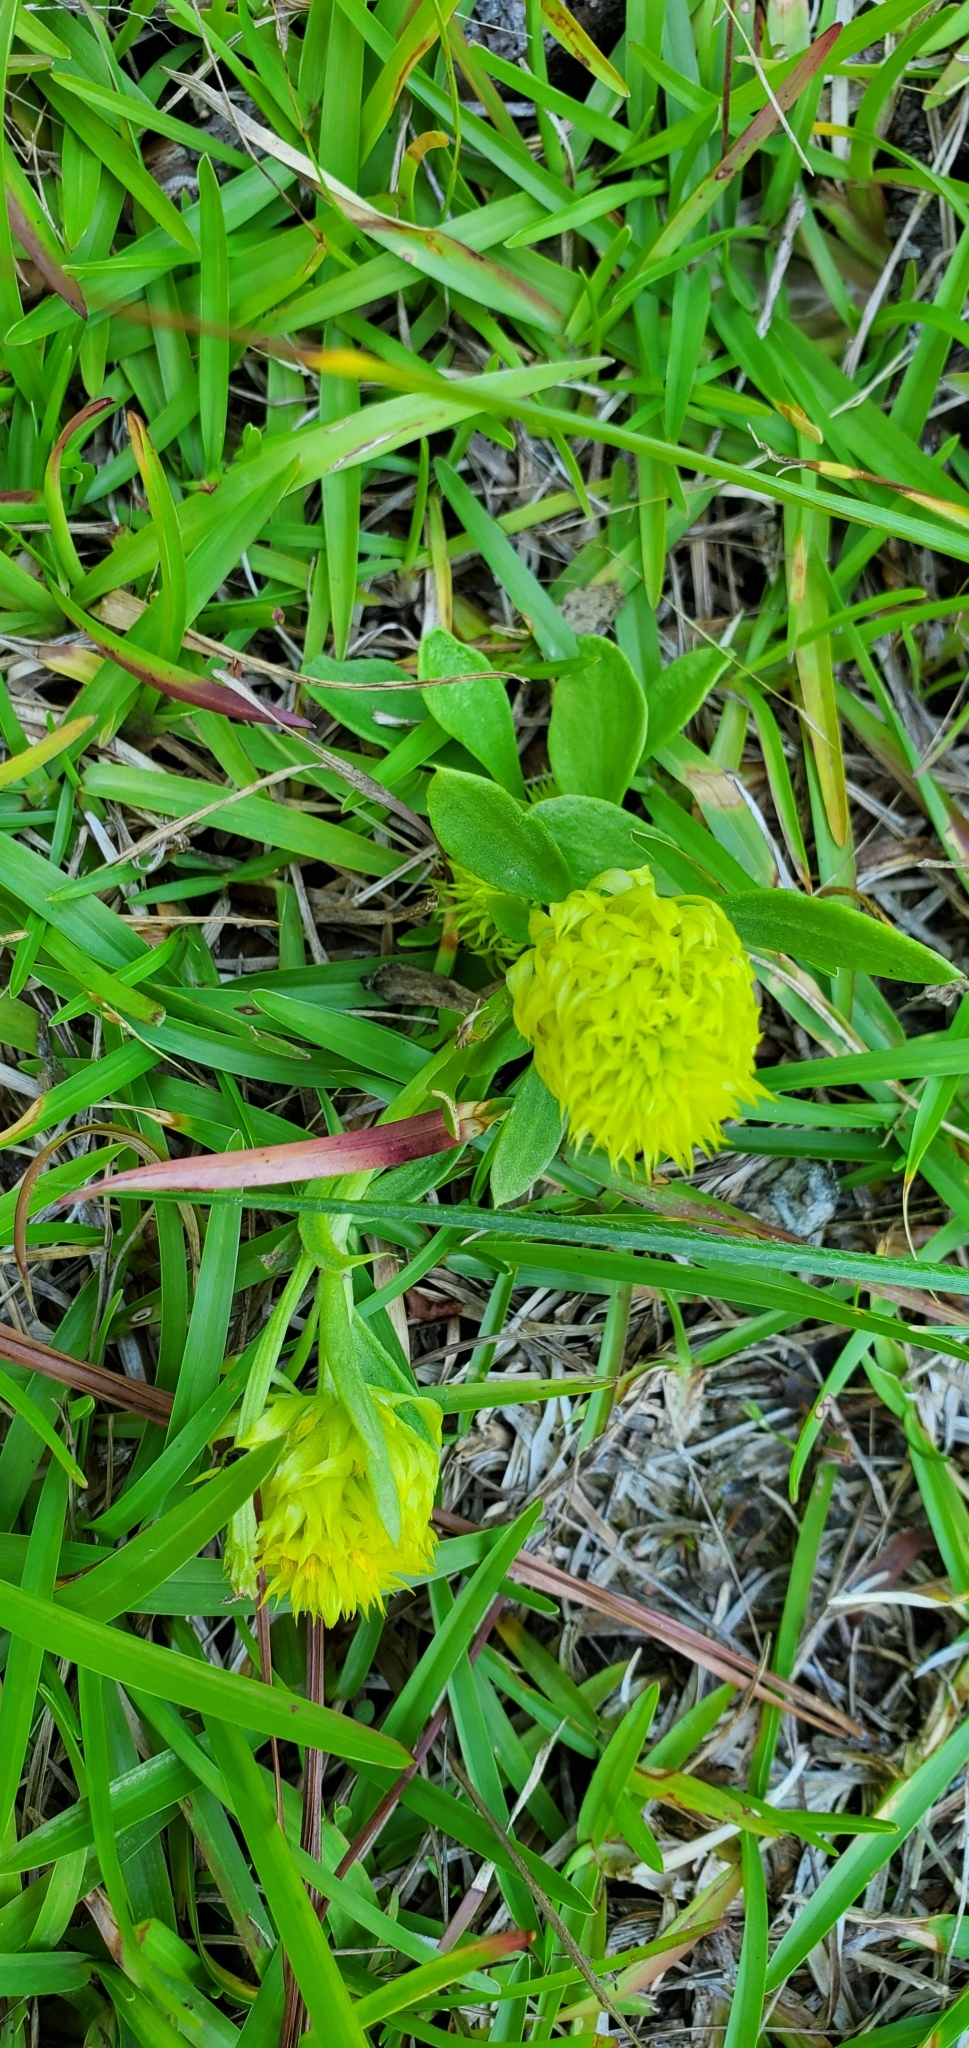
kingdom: Plantae
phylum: Tracheophyta
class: Magnoliopsida
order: Fabales
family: Polygalaceae
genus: Polygala
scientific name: Polygala nana
